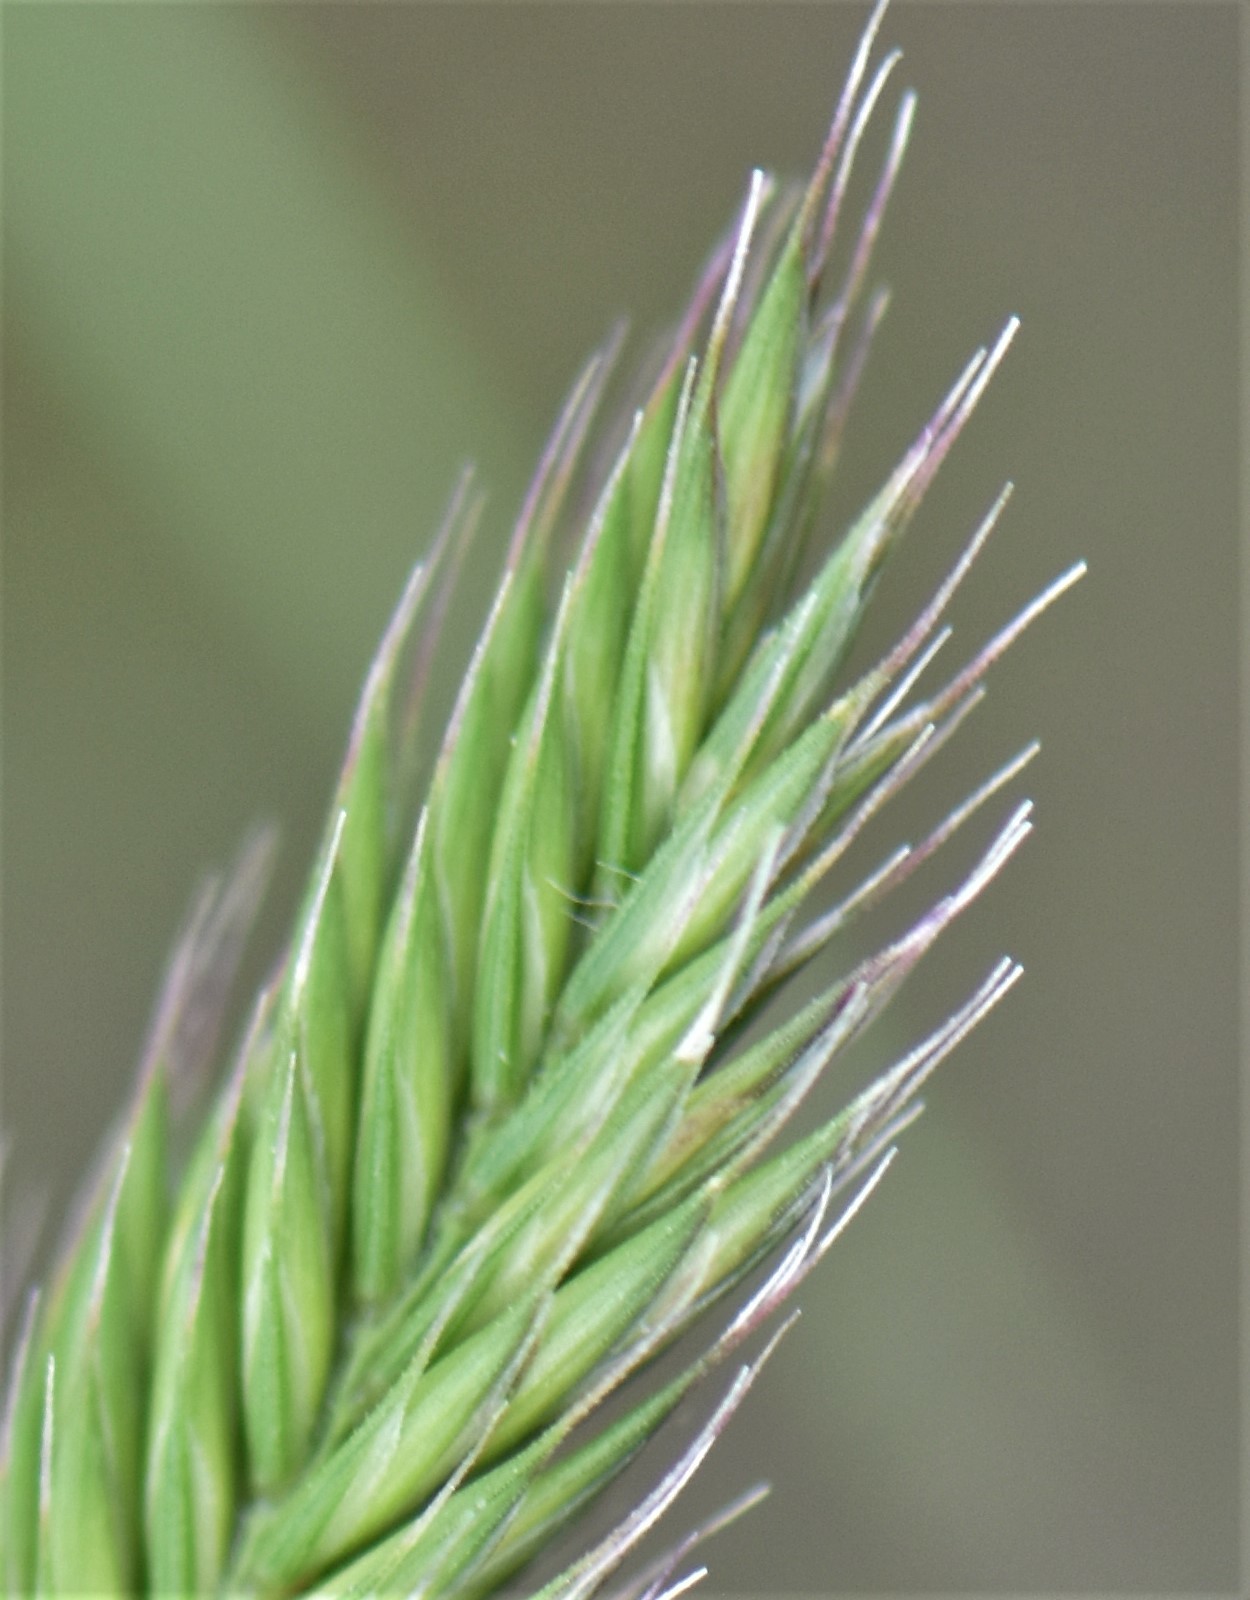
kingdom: Plantae
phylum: Tracheophyta
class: Liliopsida
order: Poales
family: Poaceae
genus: Agropyron
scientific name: Agropyron cristatum
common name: Crested wheatgrass
